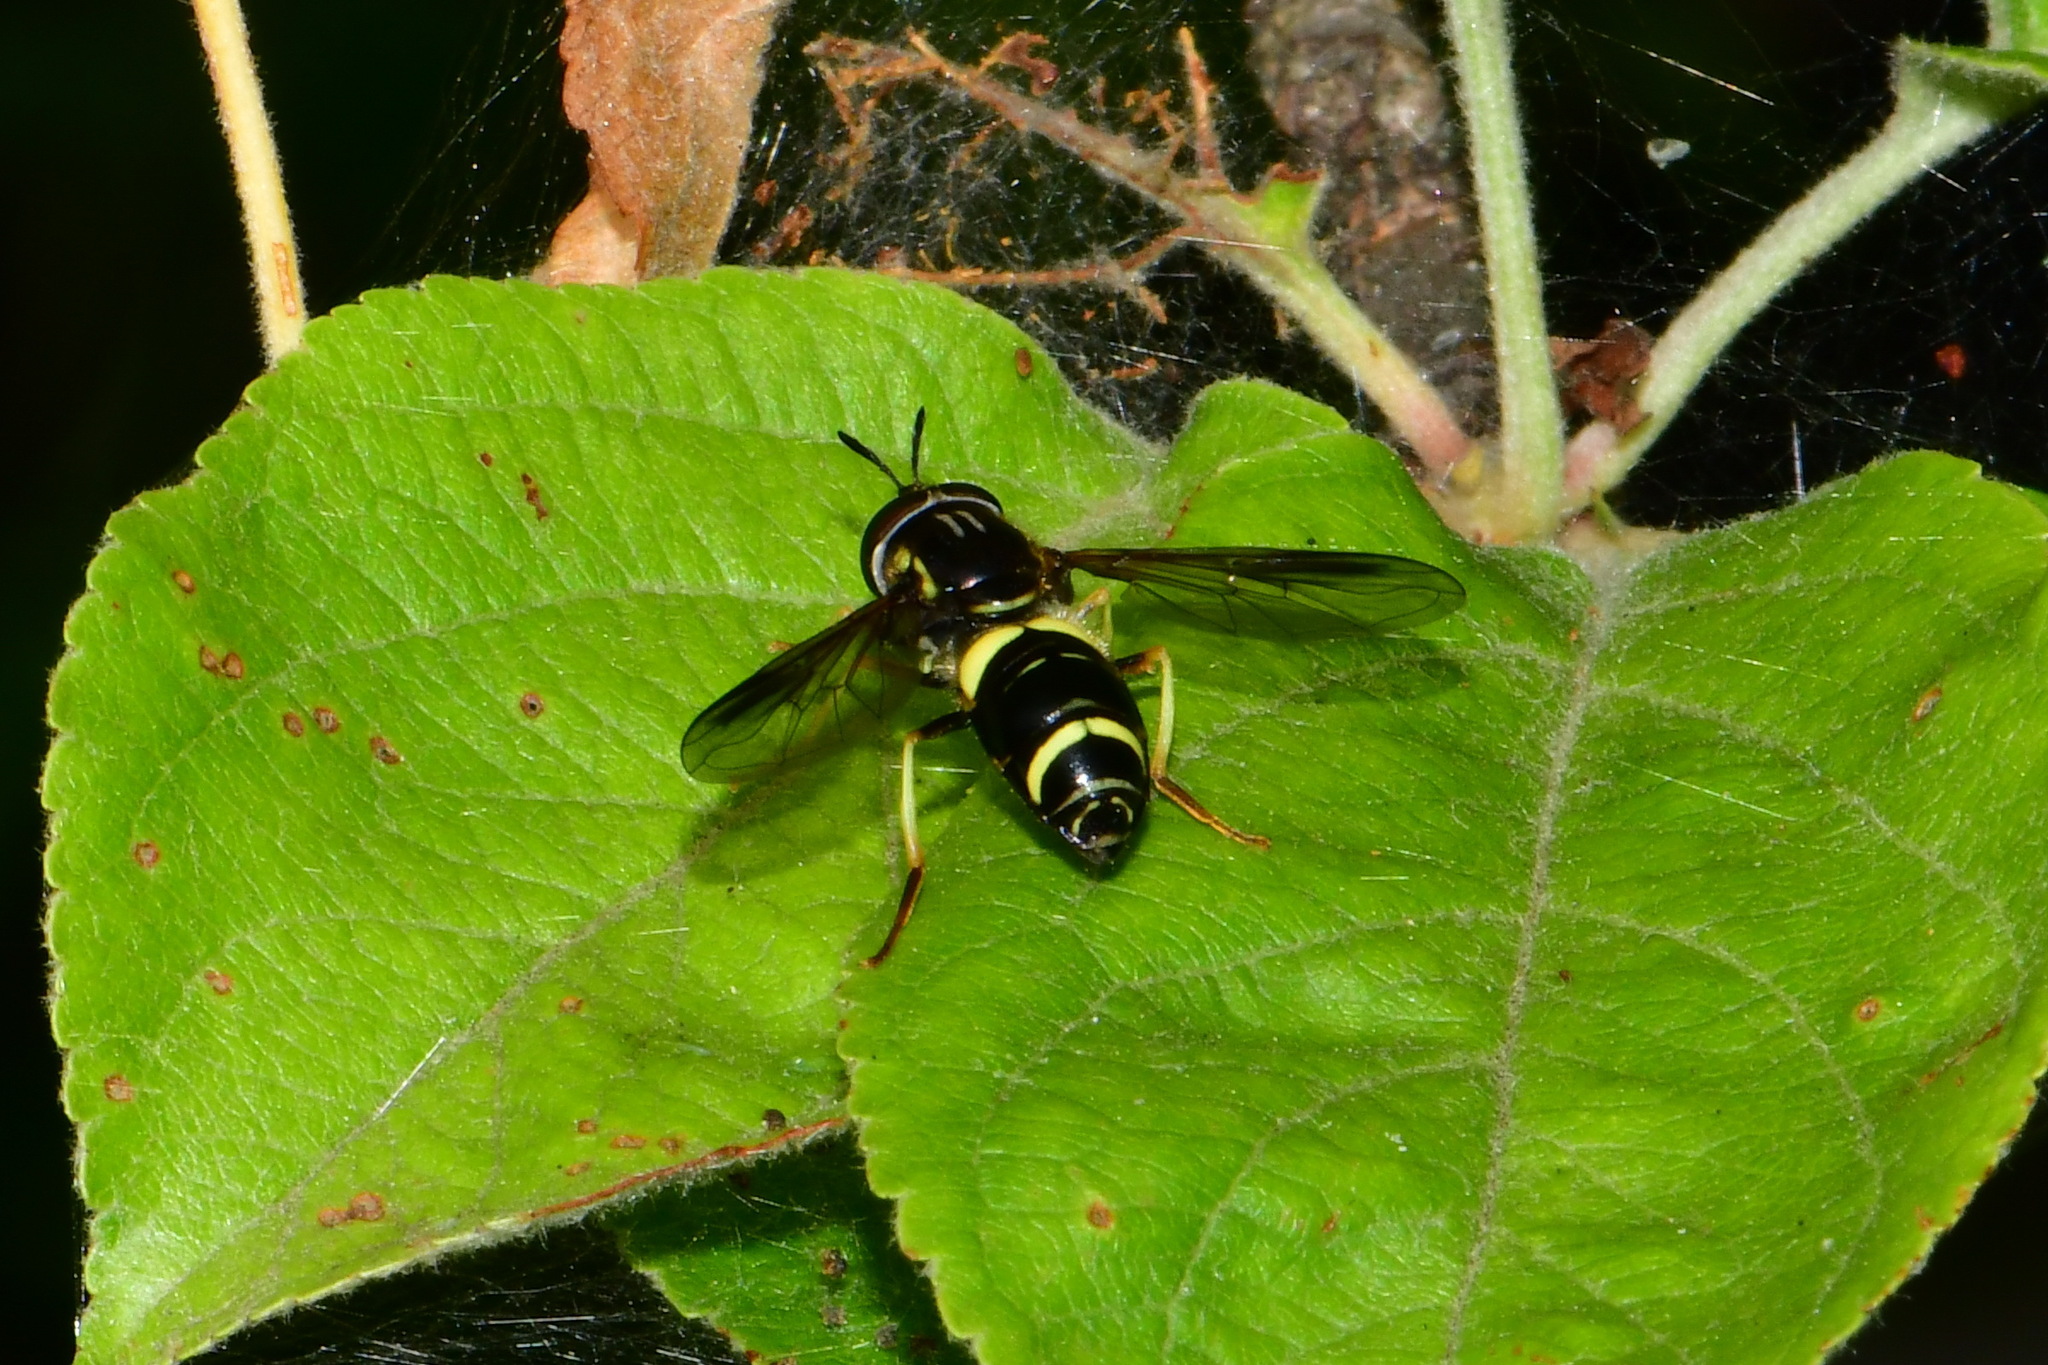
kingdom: Animalia
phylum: Arthropoda
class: Insecta
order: Diptera
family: Syrphidae
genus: Chrysotoxum
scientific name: Chrysotoxum bicincta
